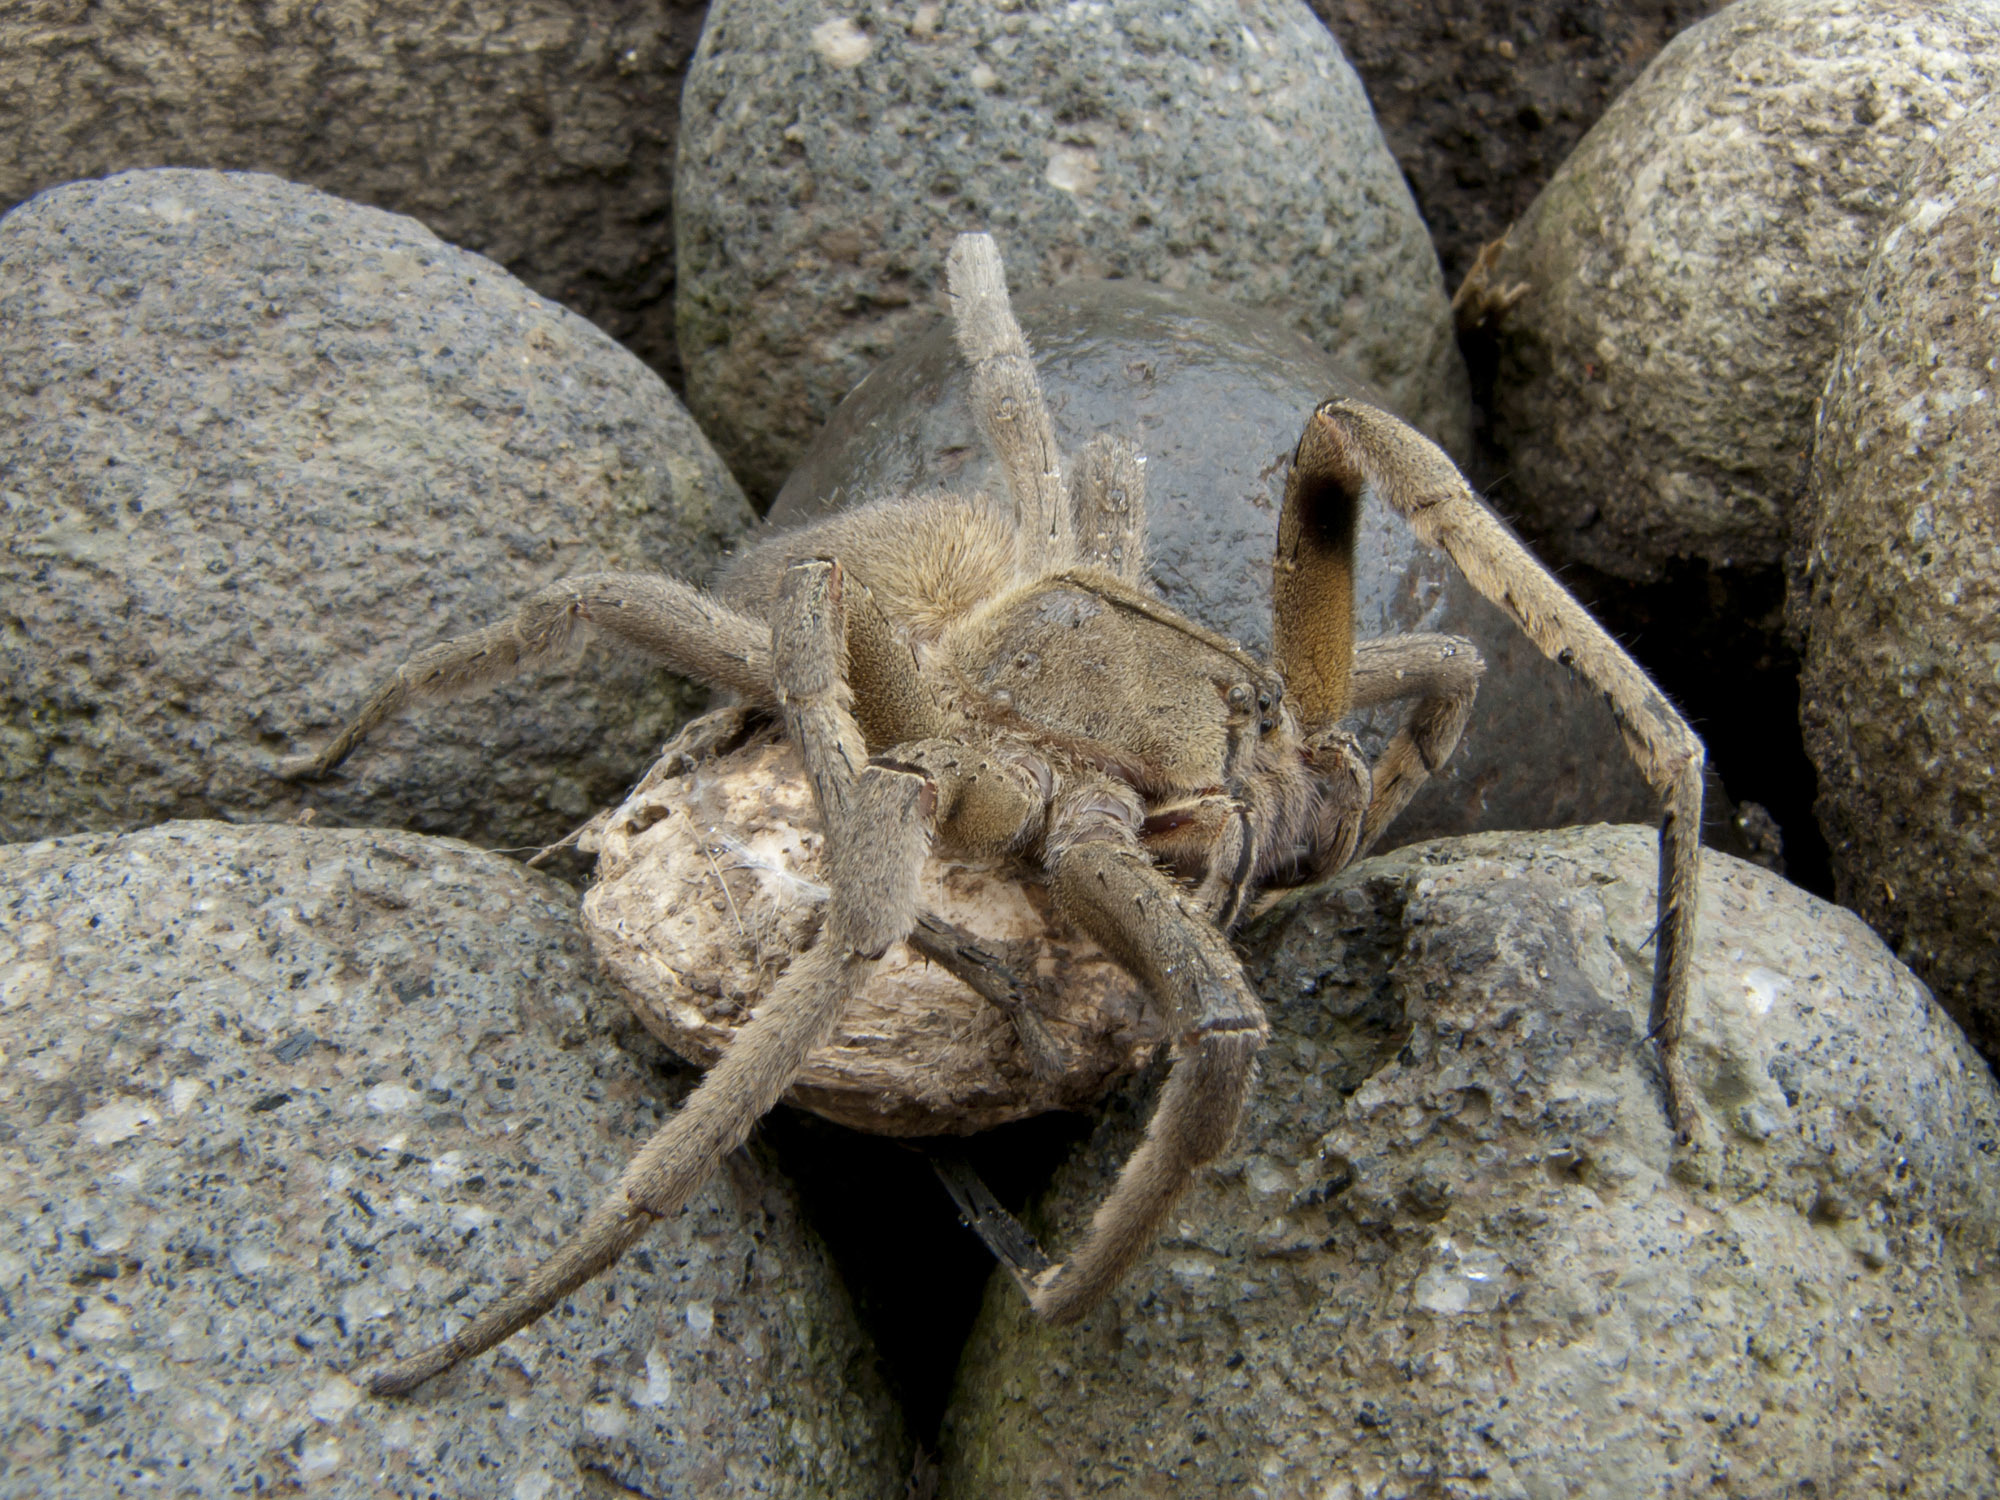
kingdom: Animalia
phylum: Arthropoda
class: Arachnida
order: Araneae
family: Ctenidae
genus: Phoneutria
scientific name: Phoneutria depilata
